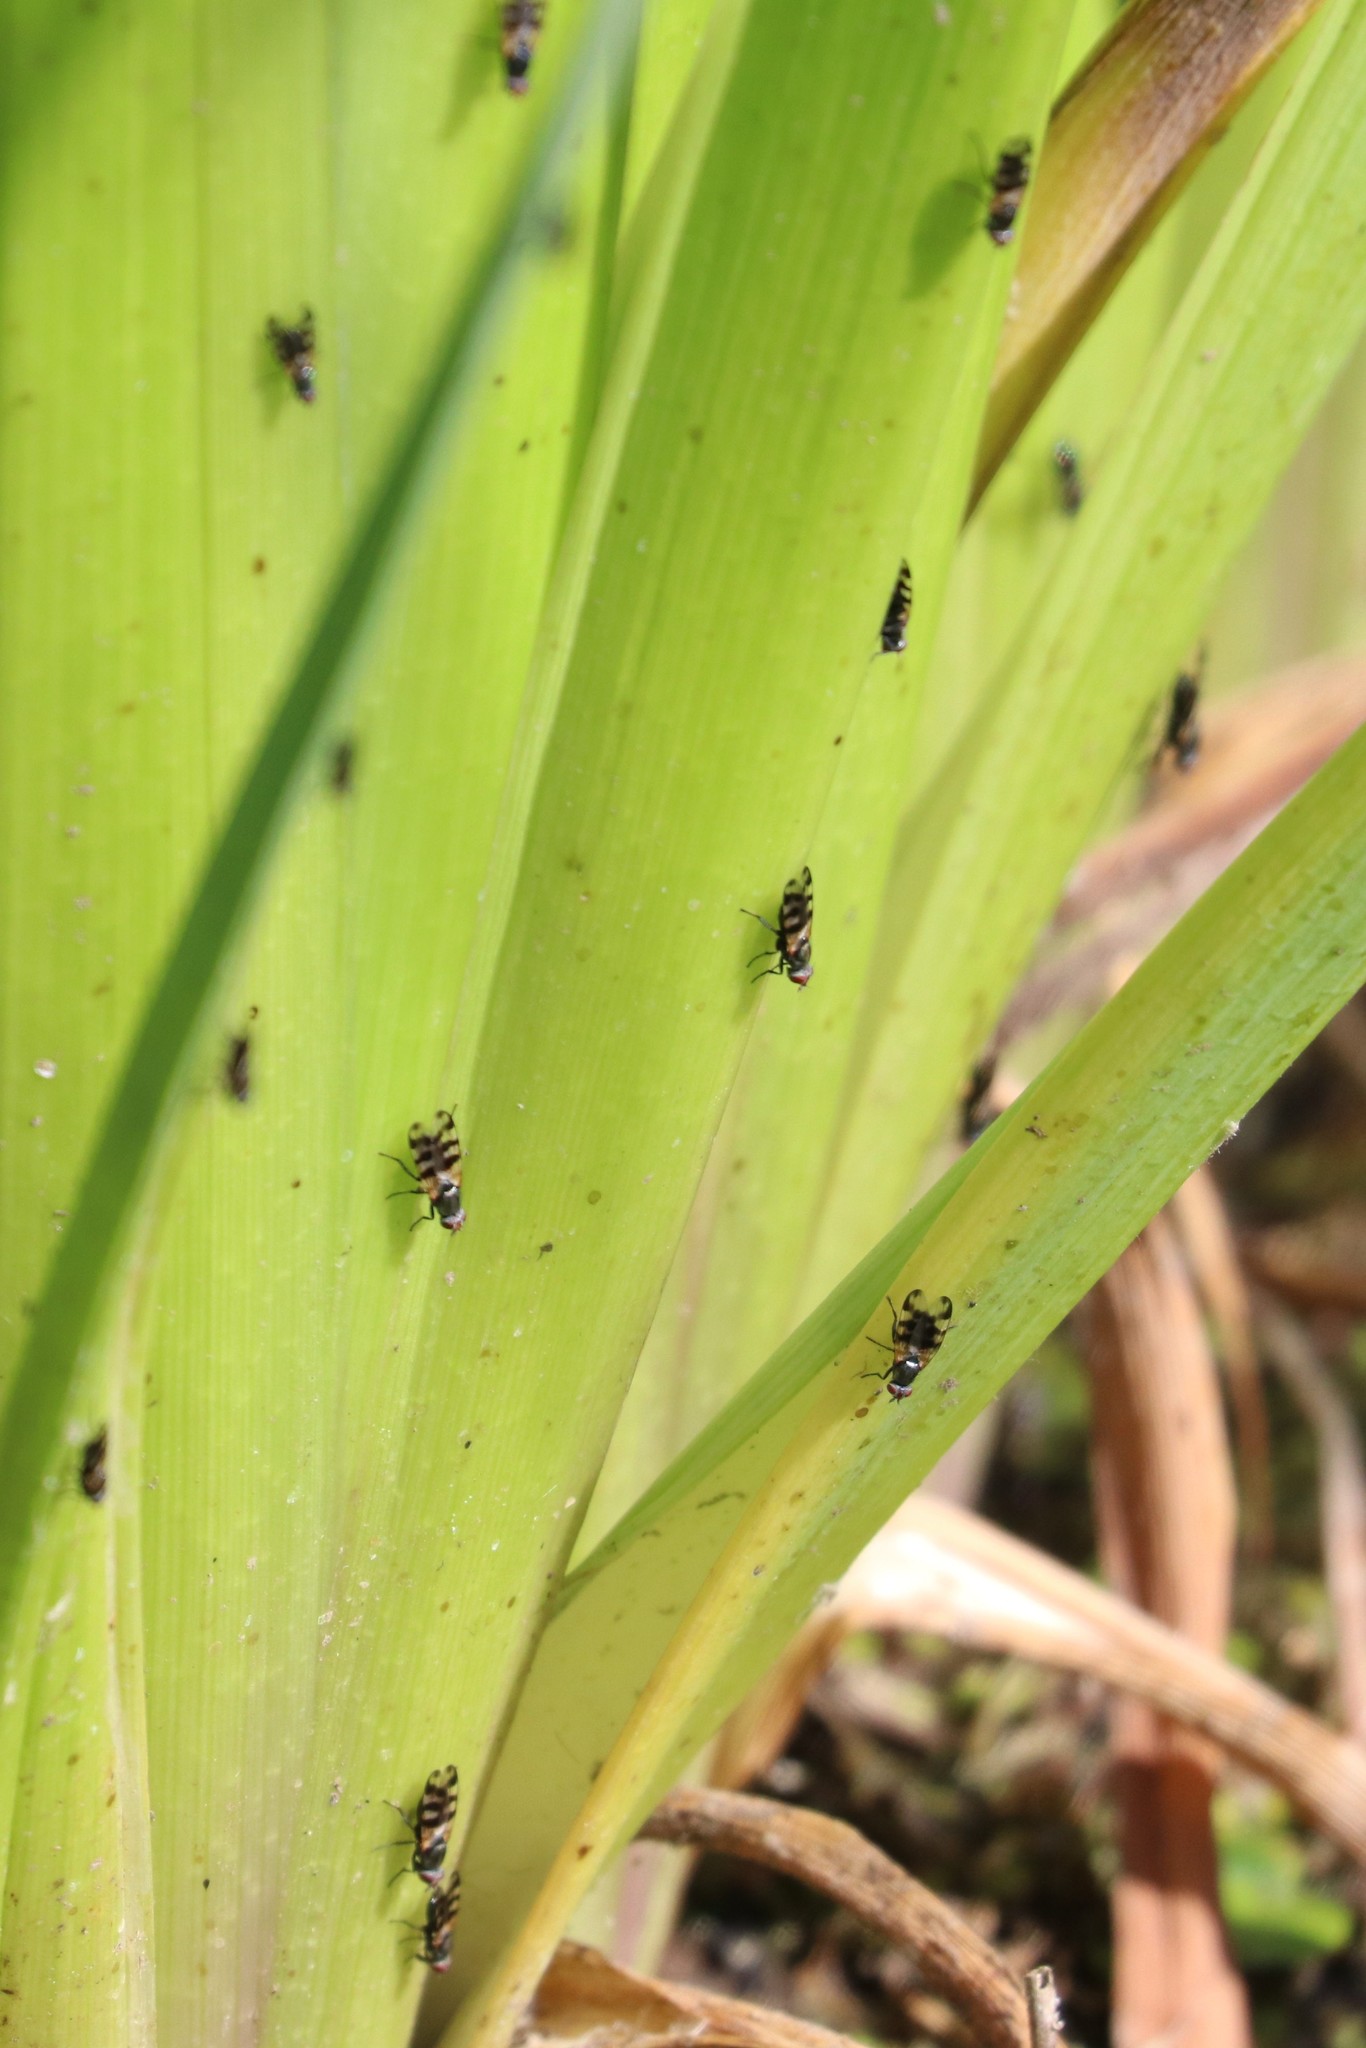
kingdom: Animalia
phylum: Arthropoda
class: Insecta
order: Diptera
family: Ulidiidae
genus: Ceroxys
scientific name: Ceroxys urticae
